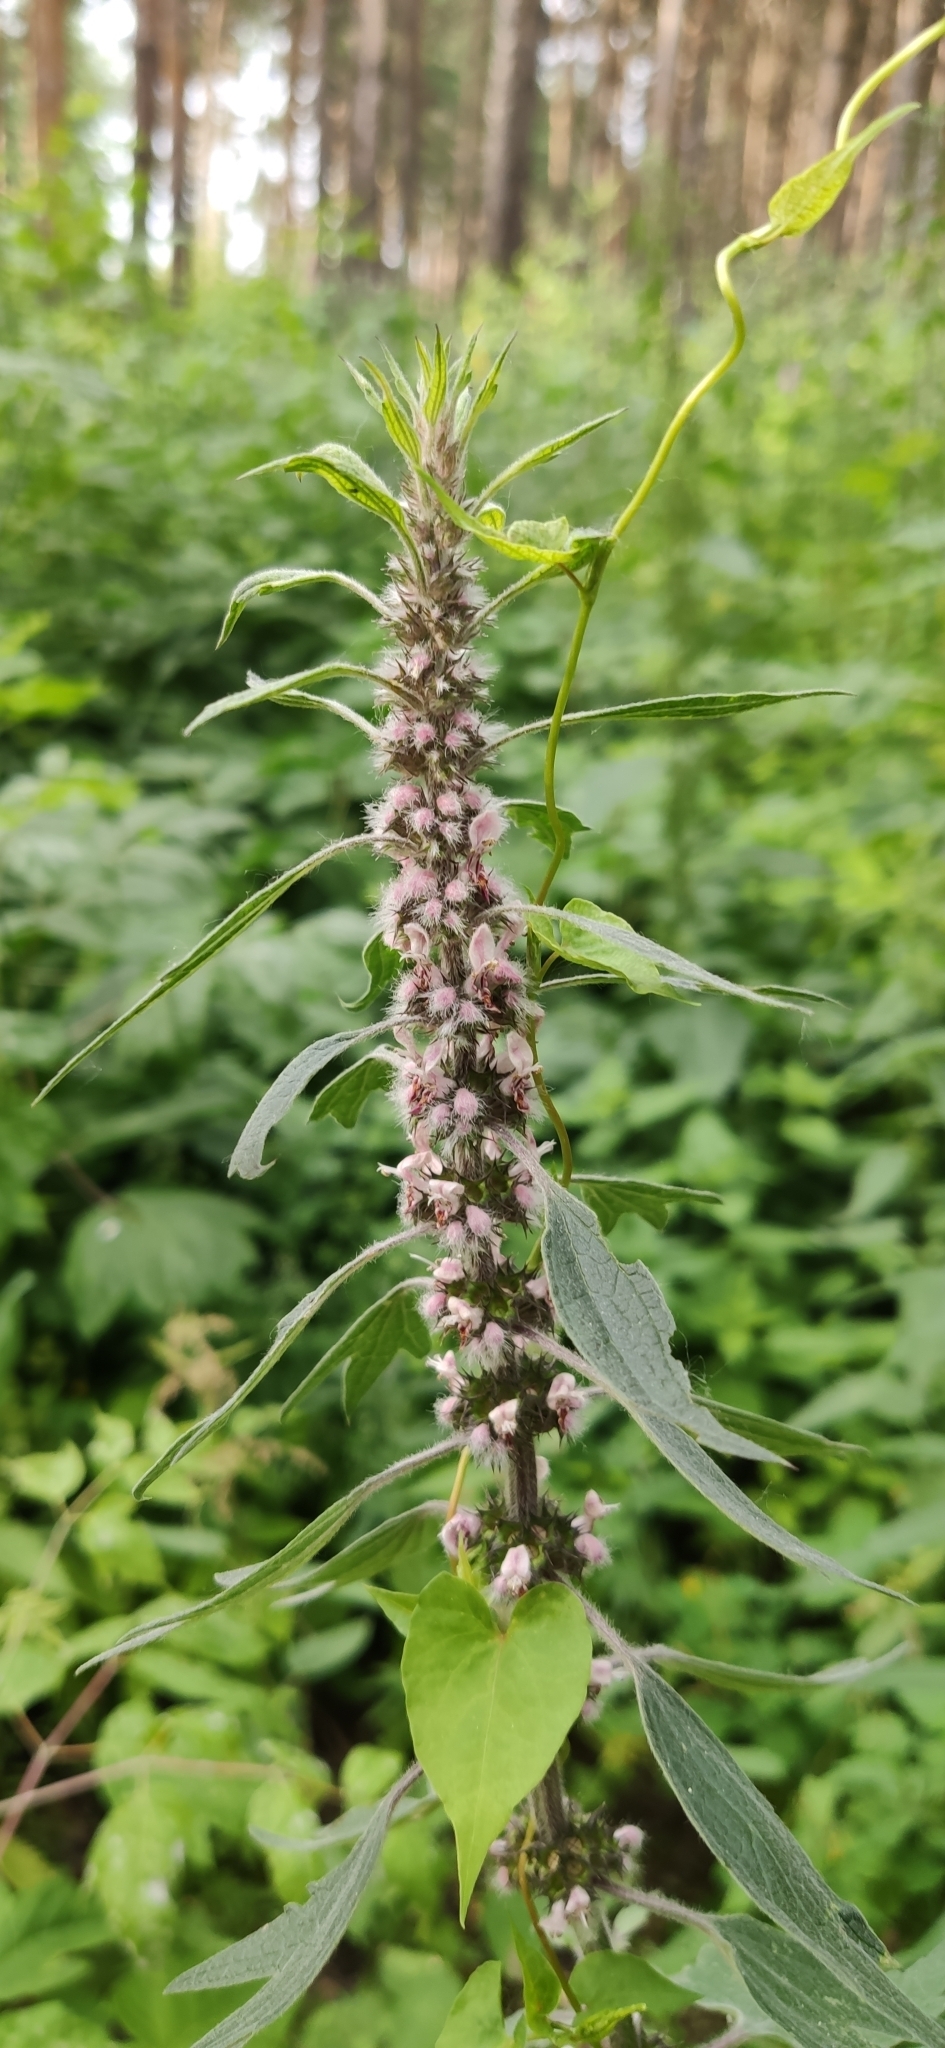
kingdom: Plantae
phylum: Tracheophyta
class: Magnoliopsida
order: Lamiales
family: Lamiaceae
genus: Leonurus
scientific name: Leonurus quinquelobatus
